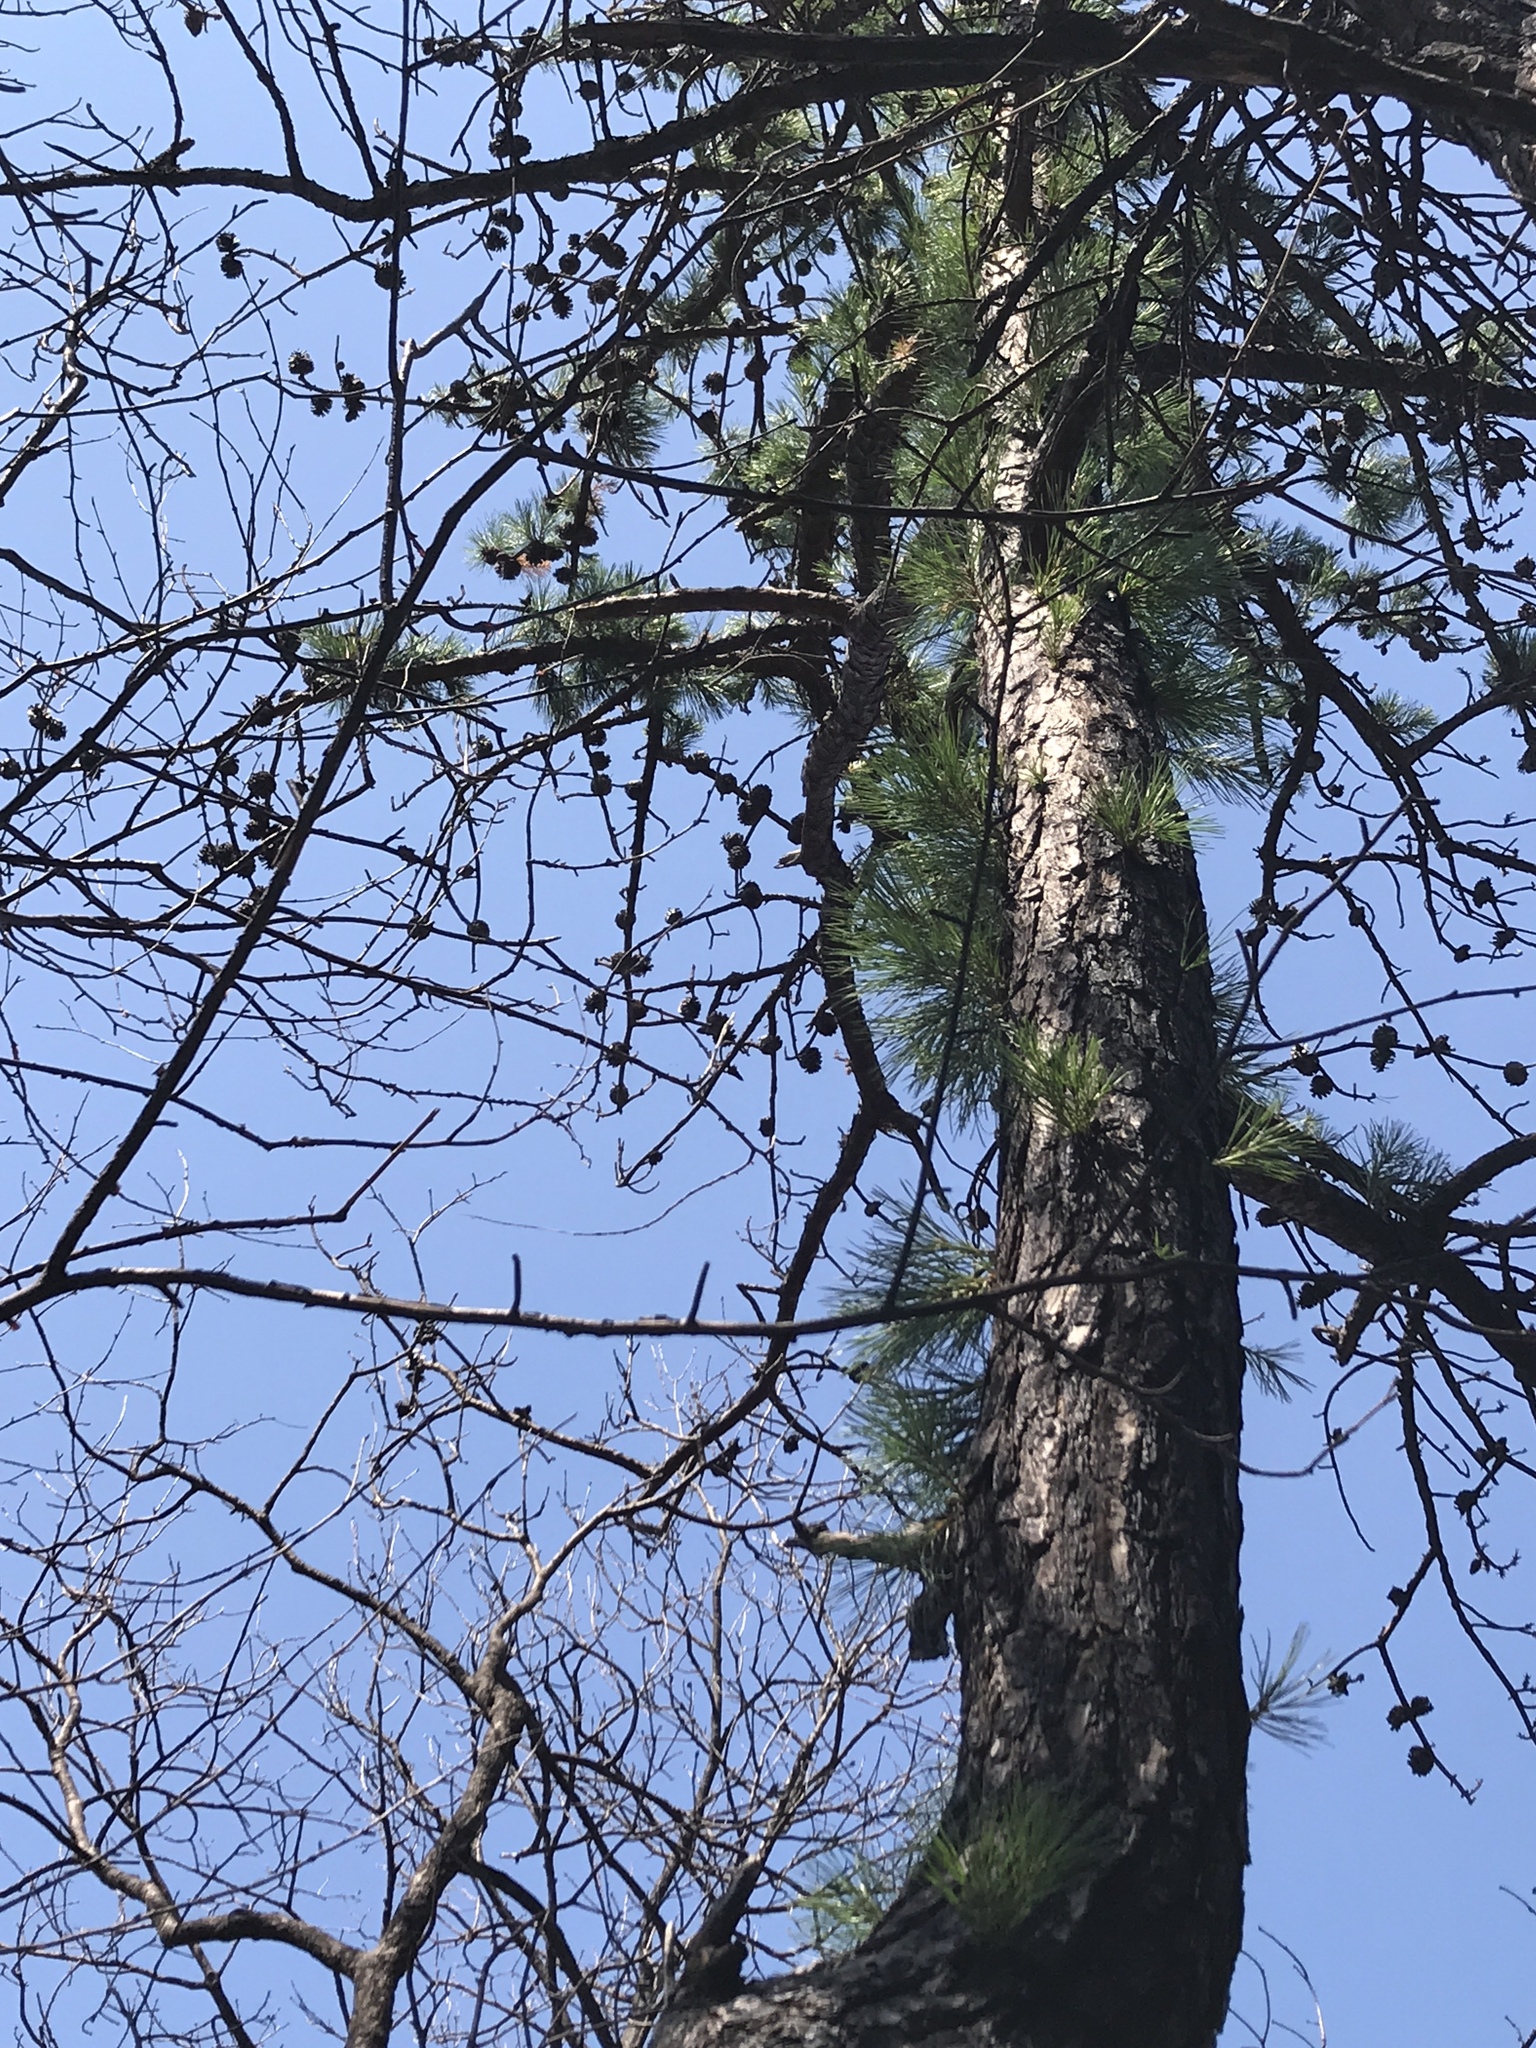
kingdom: Plantae
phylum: Tracheophyta
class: Pinopsida
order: Pinales
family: Pinaceae
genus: Pinus
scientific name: Pinus rigida
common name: Pitch pine
